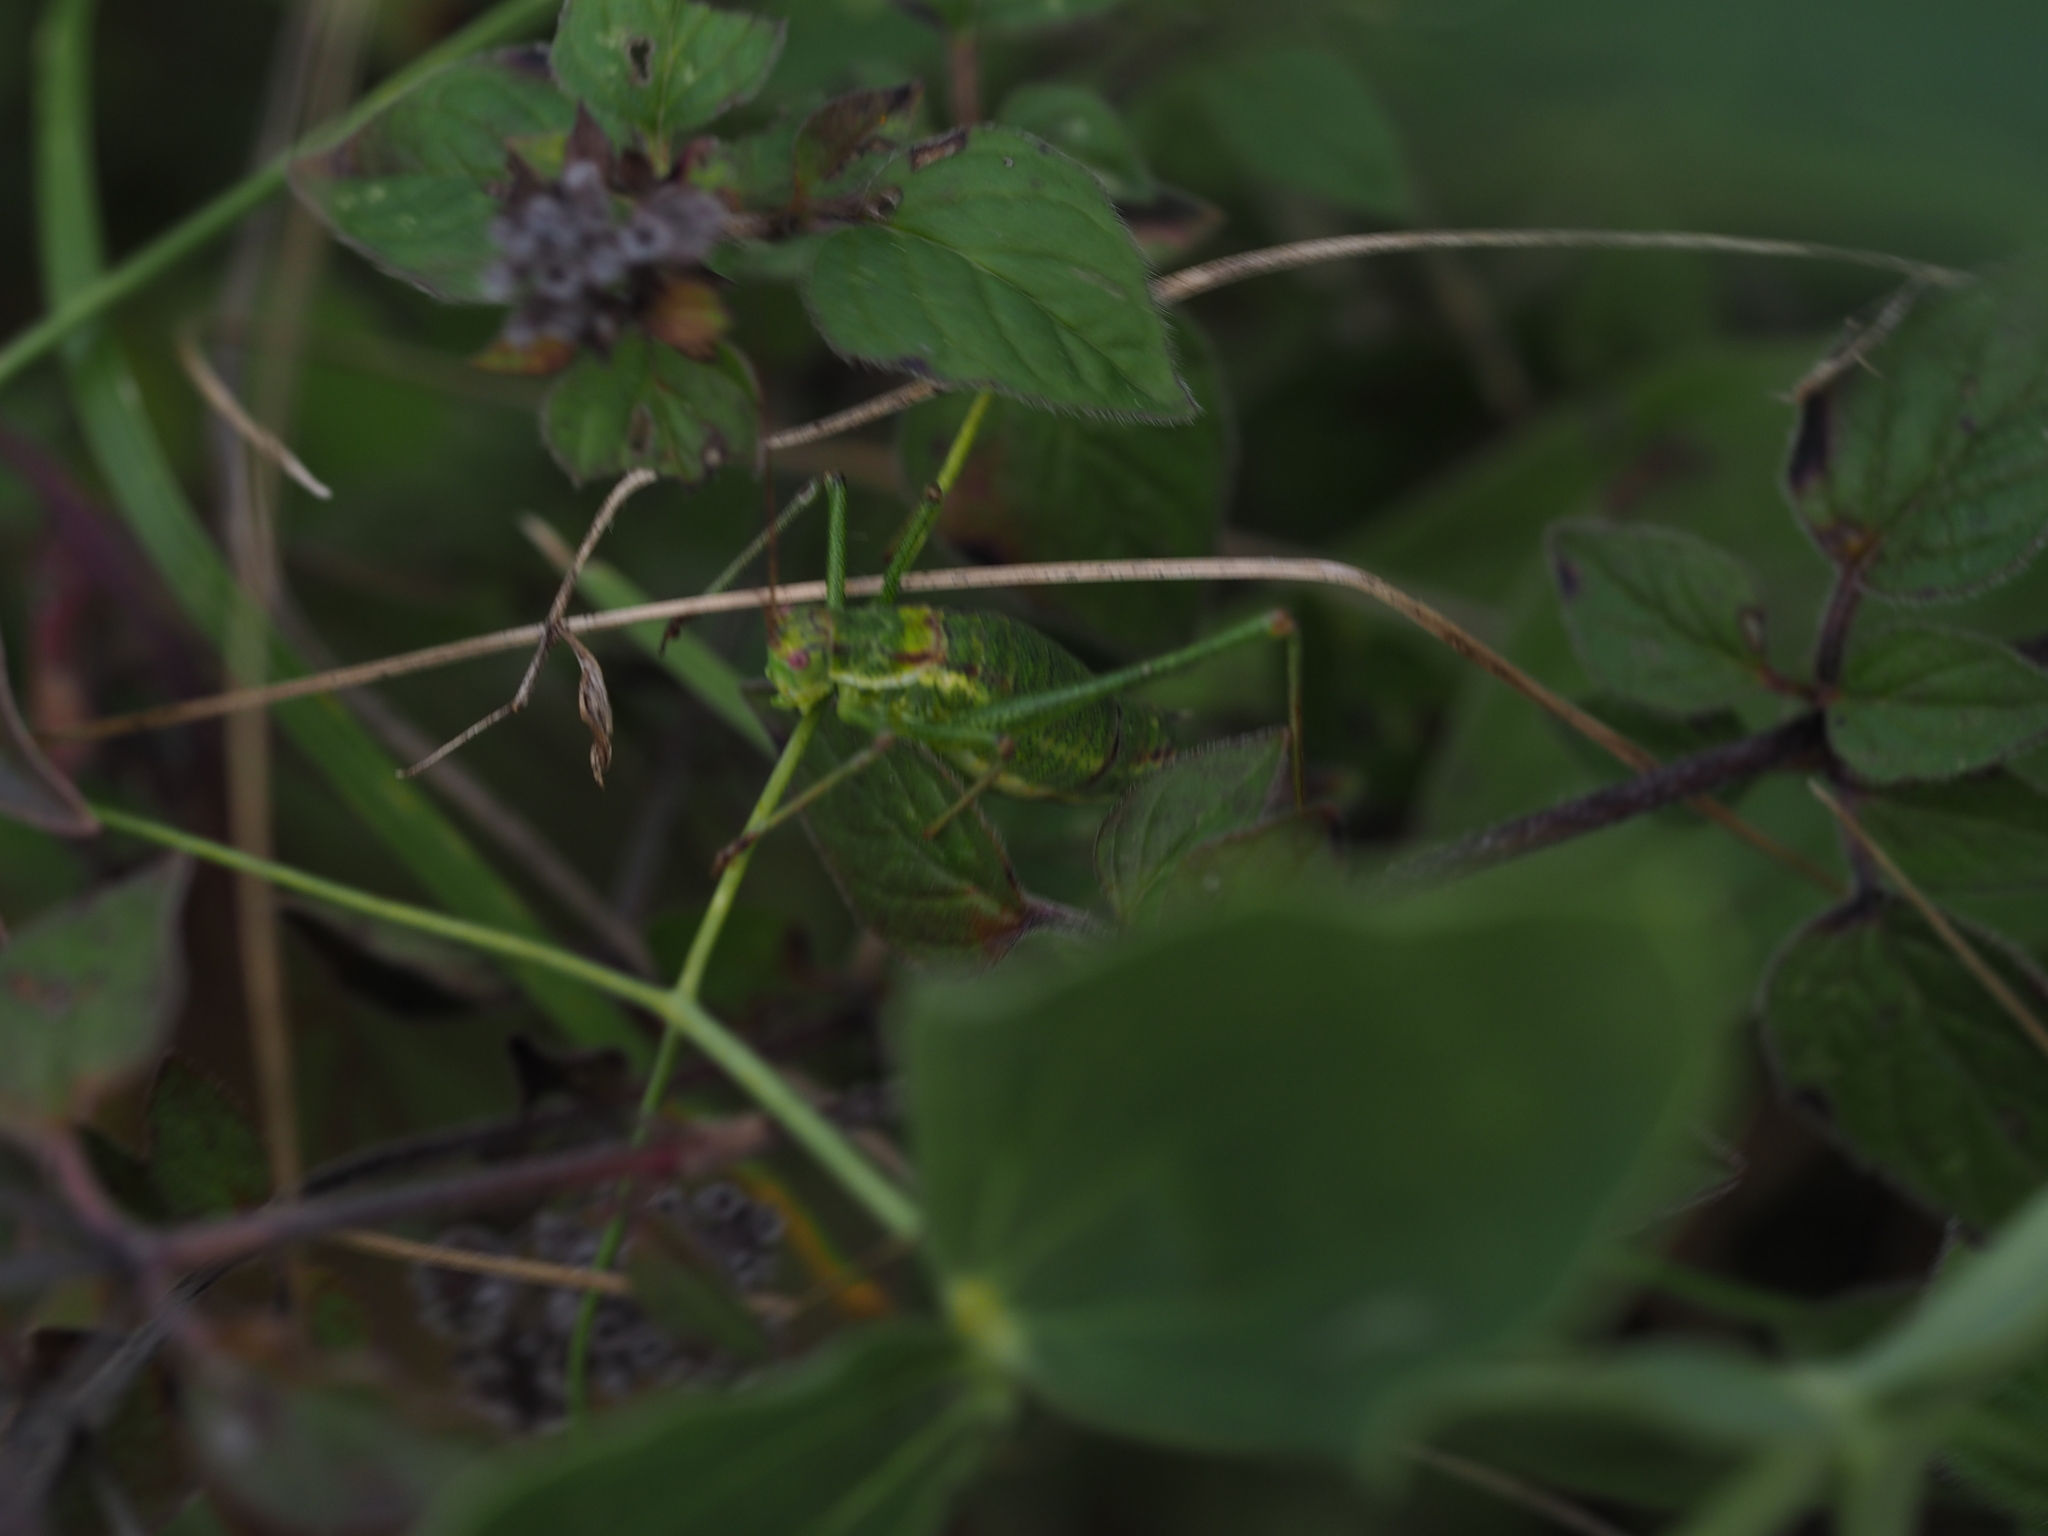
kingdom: Animalia
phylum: Arthropoda
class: Insecta
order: Orthoptera
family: Tettigoniidae
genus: Leptophyes
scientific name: Leptophyes albovittata
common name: Striped bush-cricket
